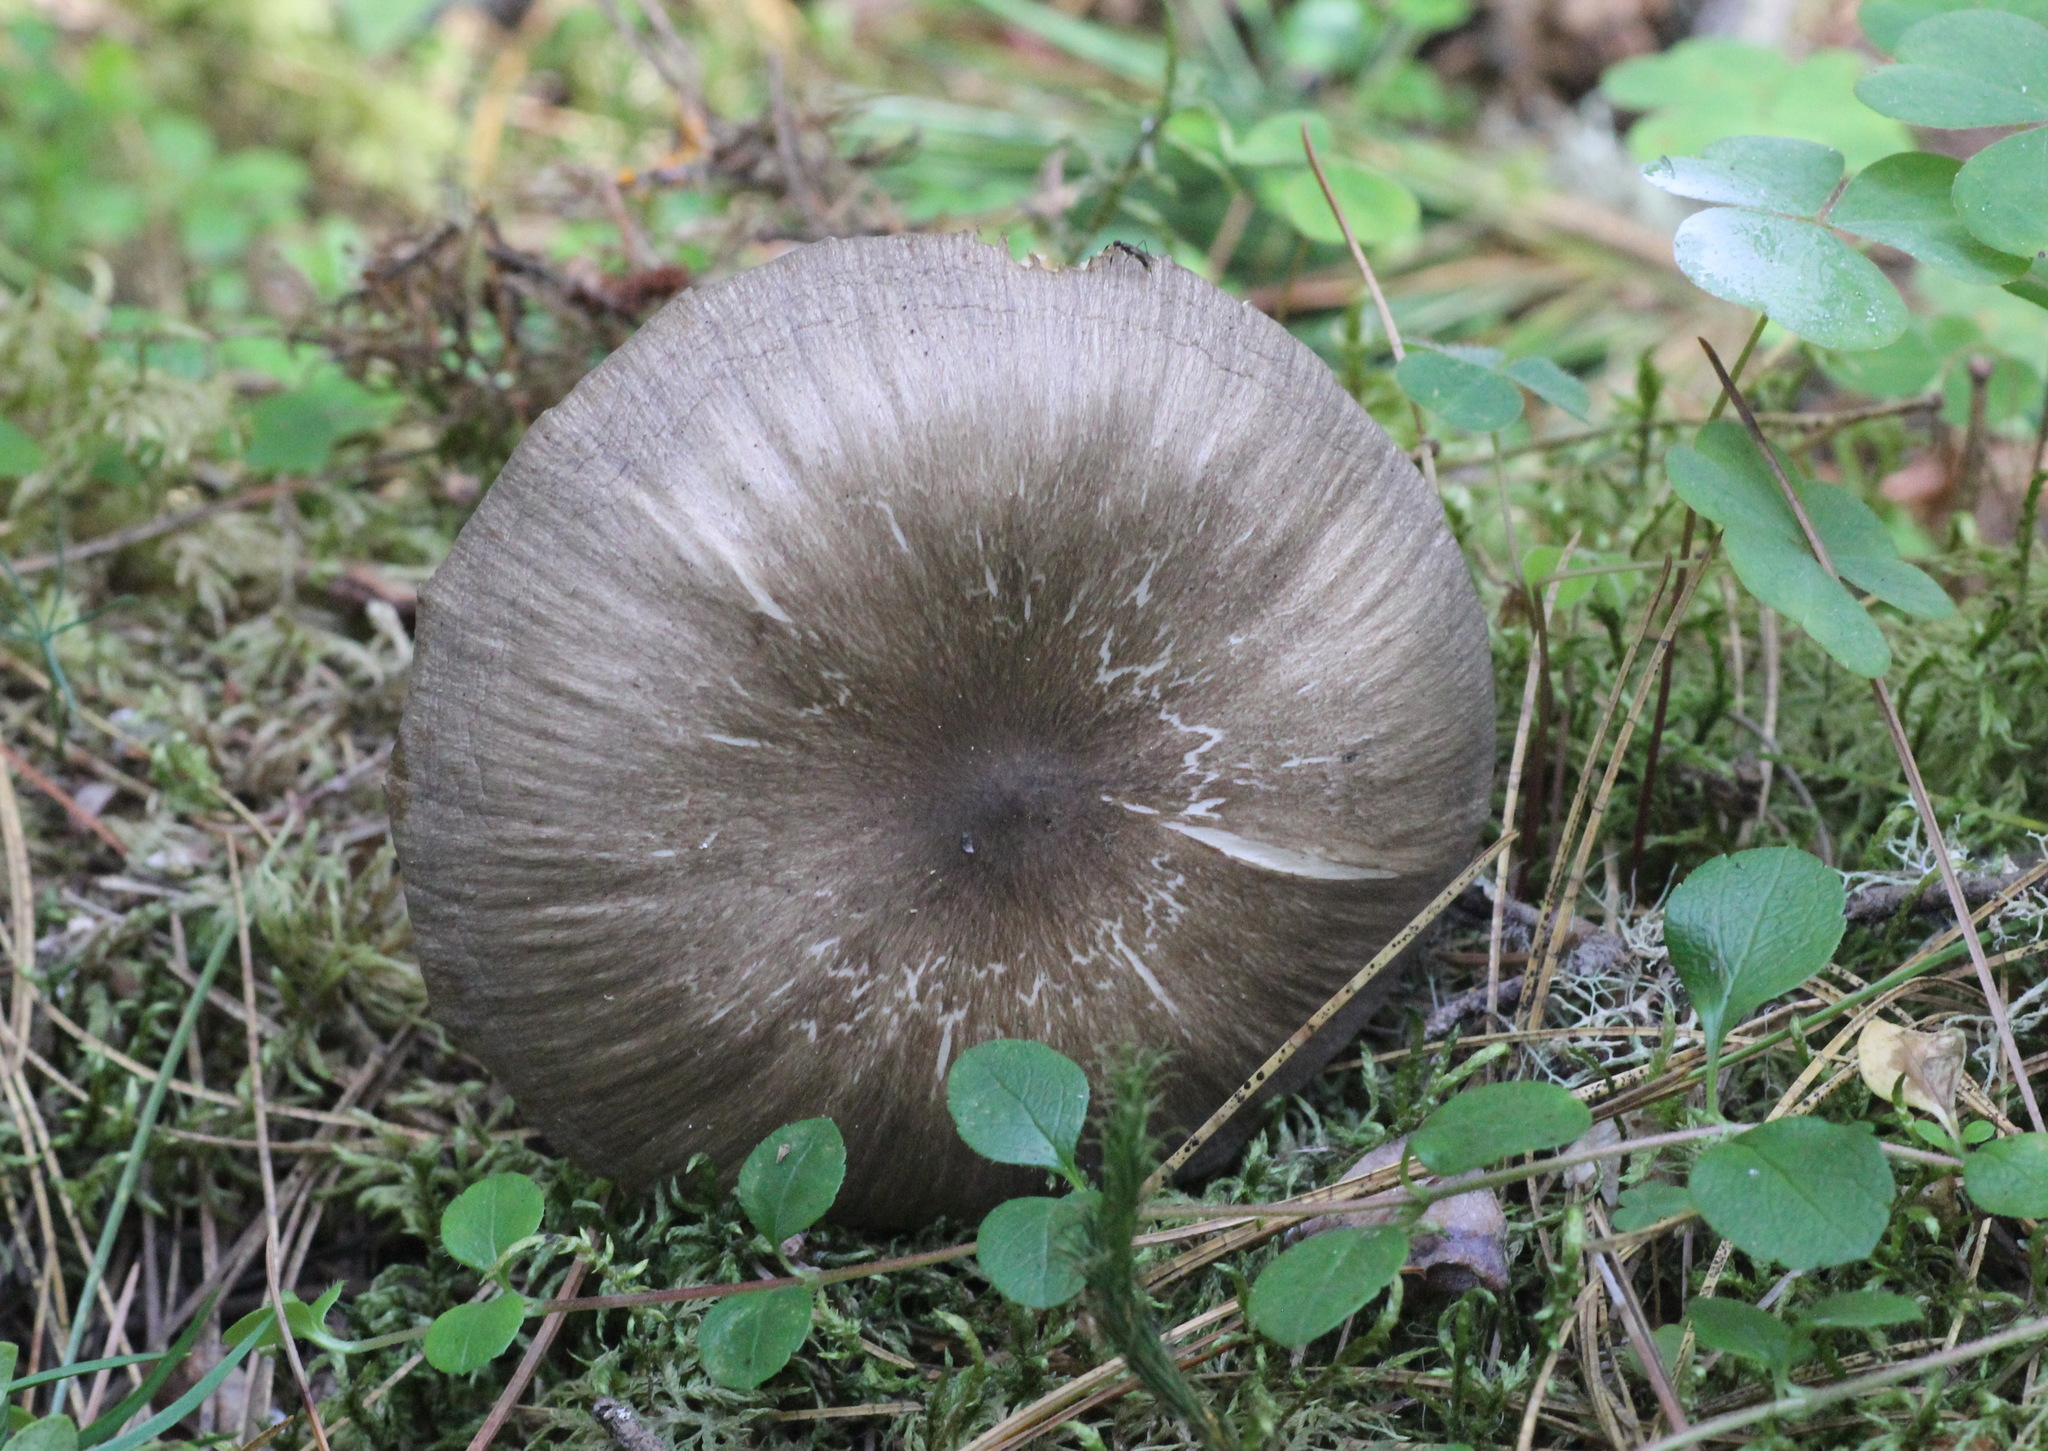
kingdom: Fungi
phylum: Basidiomycota
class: Agaricomycetes
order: Agaricales
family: Tricholomataceae
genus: Megacollybia
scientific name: Megacollybia platyphylla
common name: Whitelaced shank
